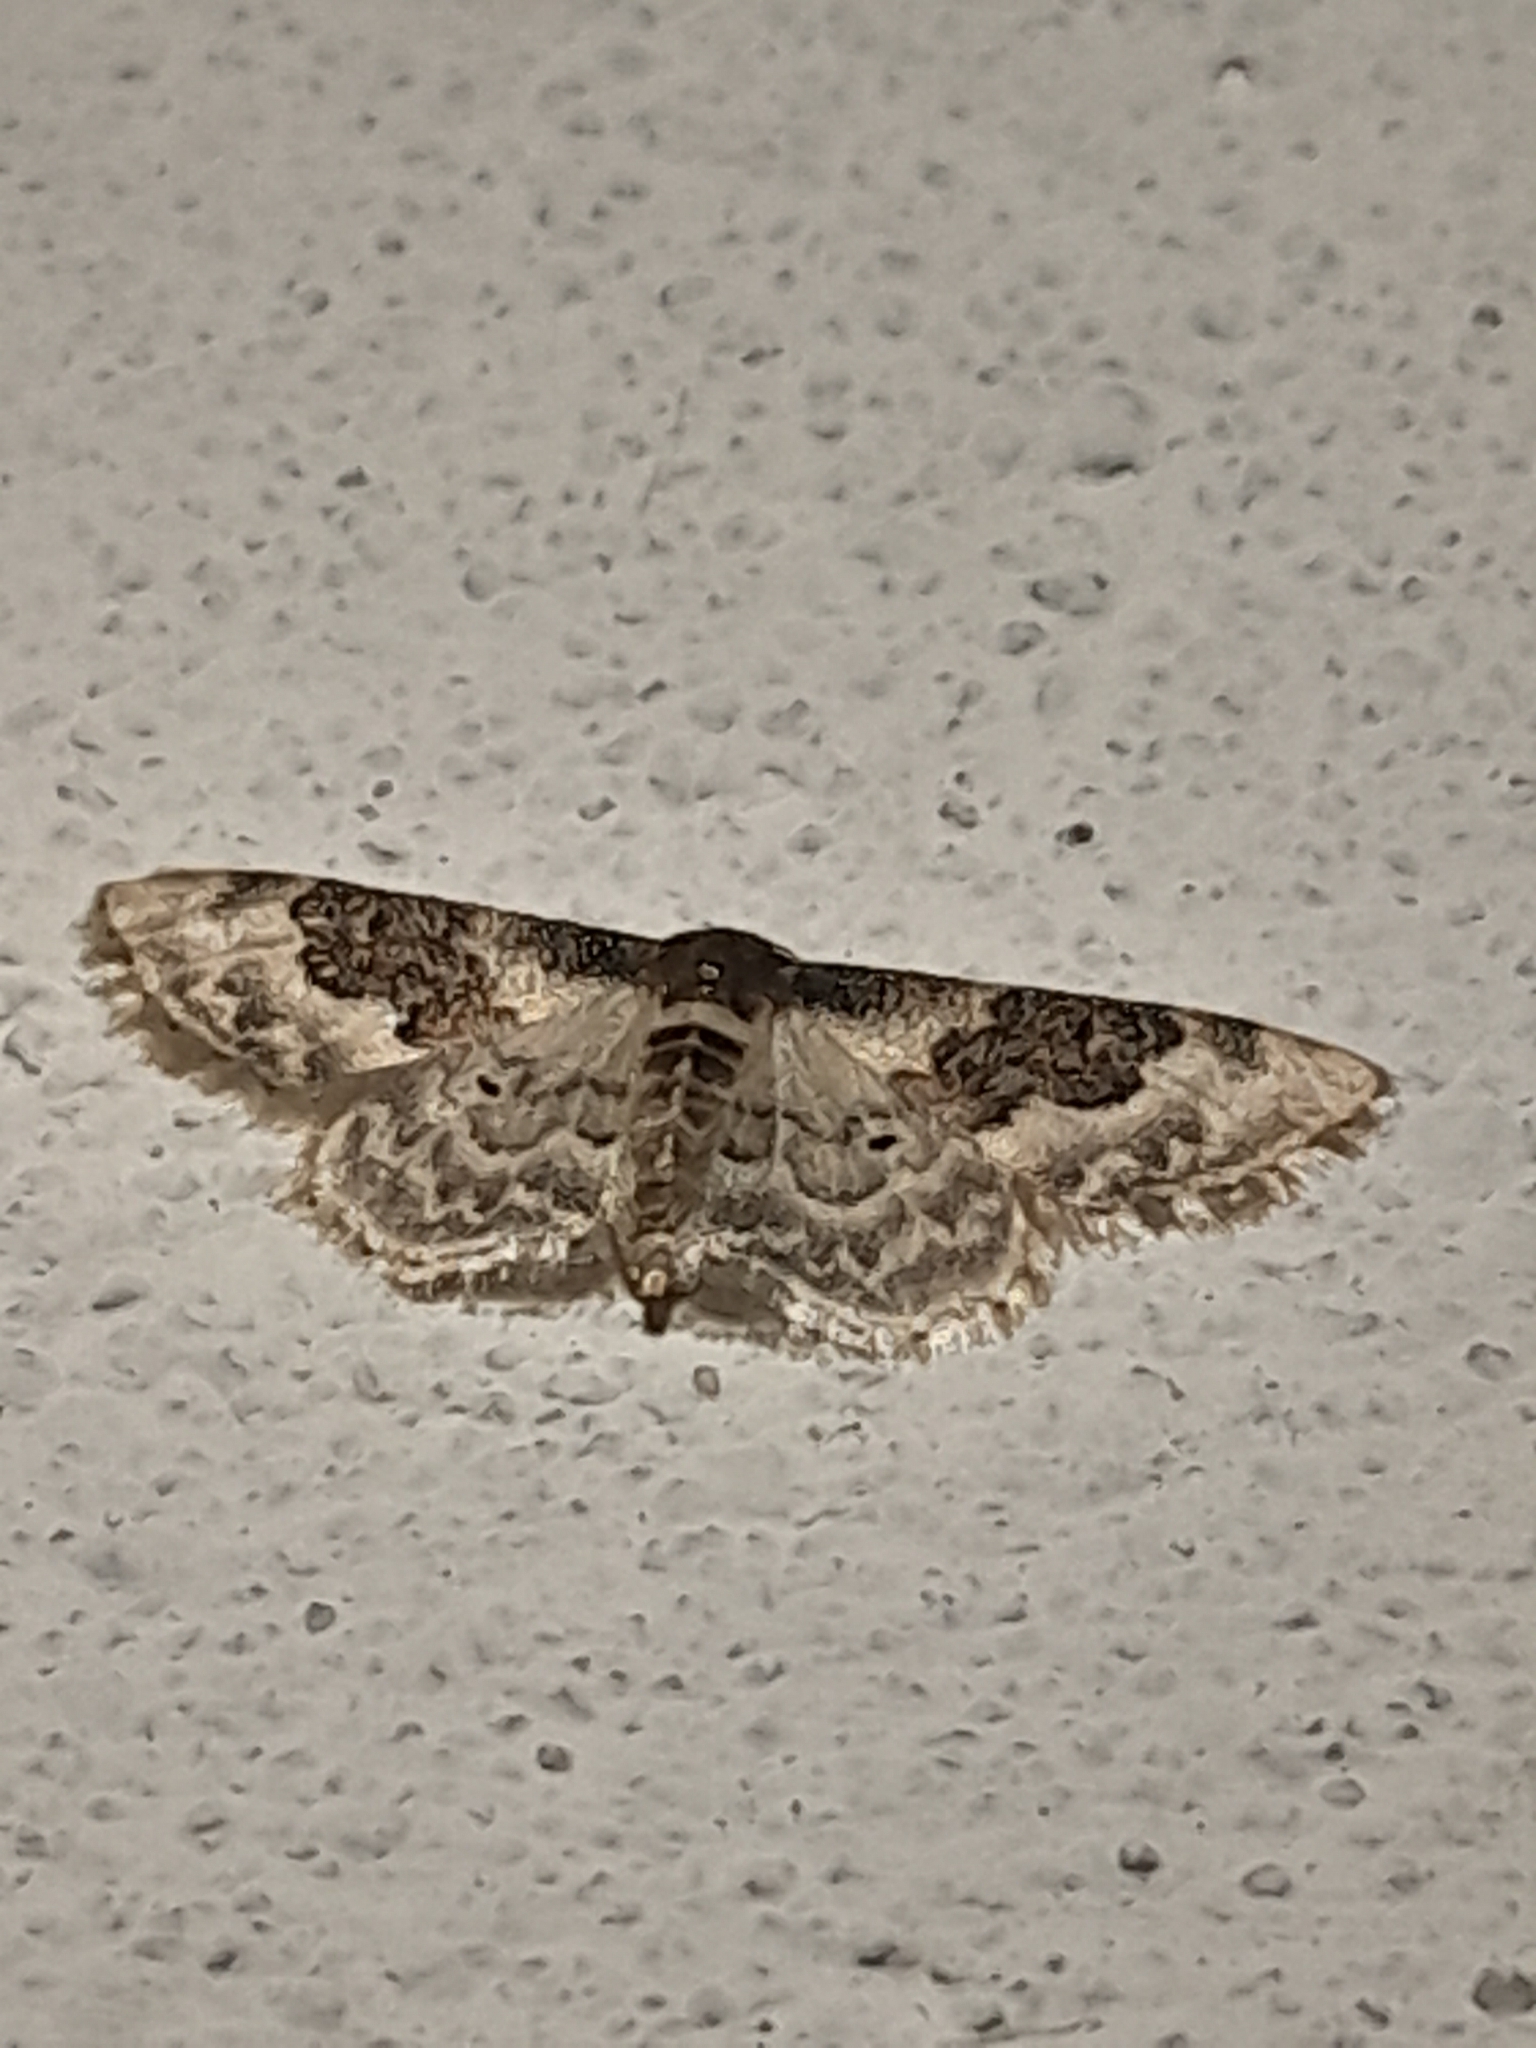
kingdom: Animalia
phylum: Arthropoda
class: Insecta
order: Lepidoptera
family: Geometridae
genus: Idaea
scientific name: Idaea rusticata
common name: Least carpet
